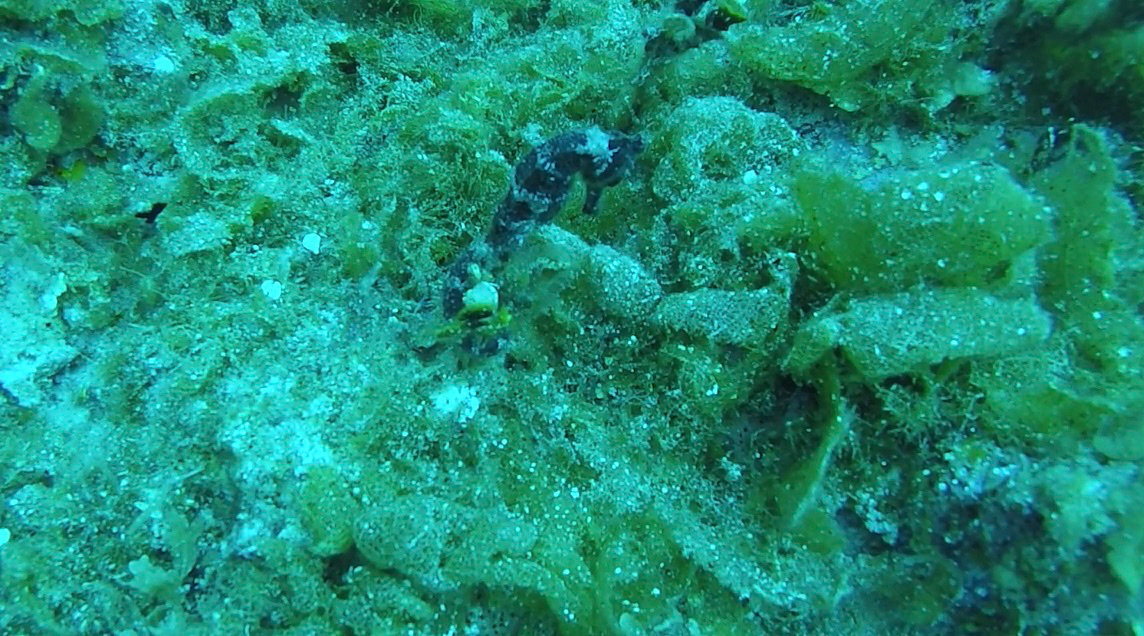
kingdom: Animalia
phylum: Chordata
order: Syngnathiformes
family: Syngnathidae
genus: Hippocampus
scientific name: Hippocampus reidi
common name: Slender seahorse
